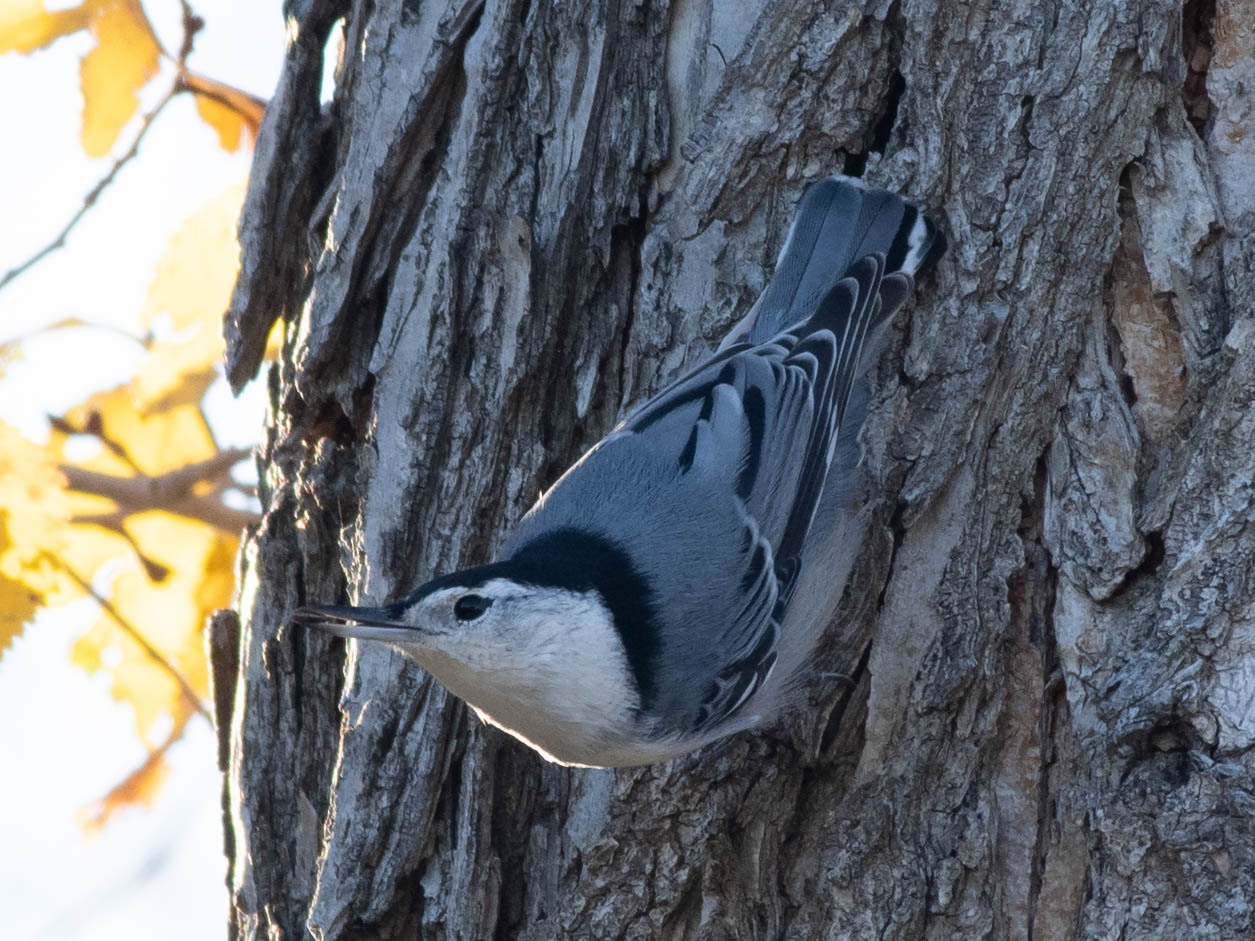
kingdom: Animalia
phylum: Chordata
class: Aves
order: Passeriformes
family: Sittidae
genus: Sitta
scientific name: Sitta carolinensis
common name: White-breasted nuthatch
